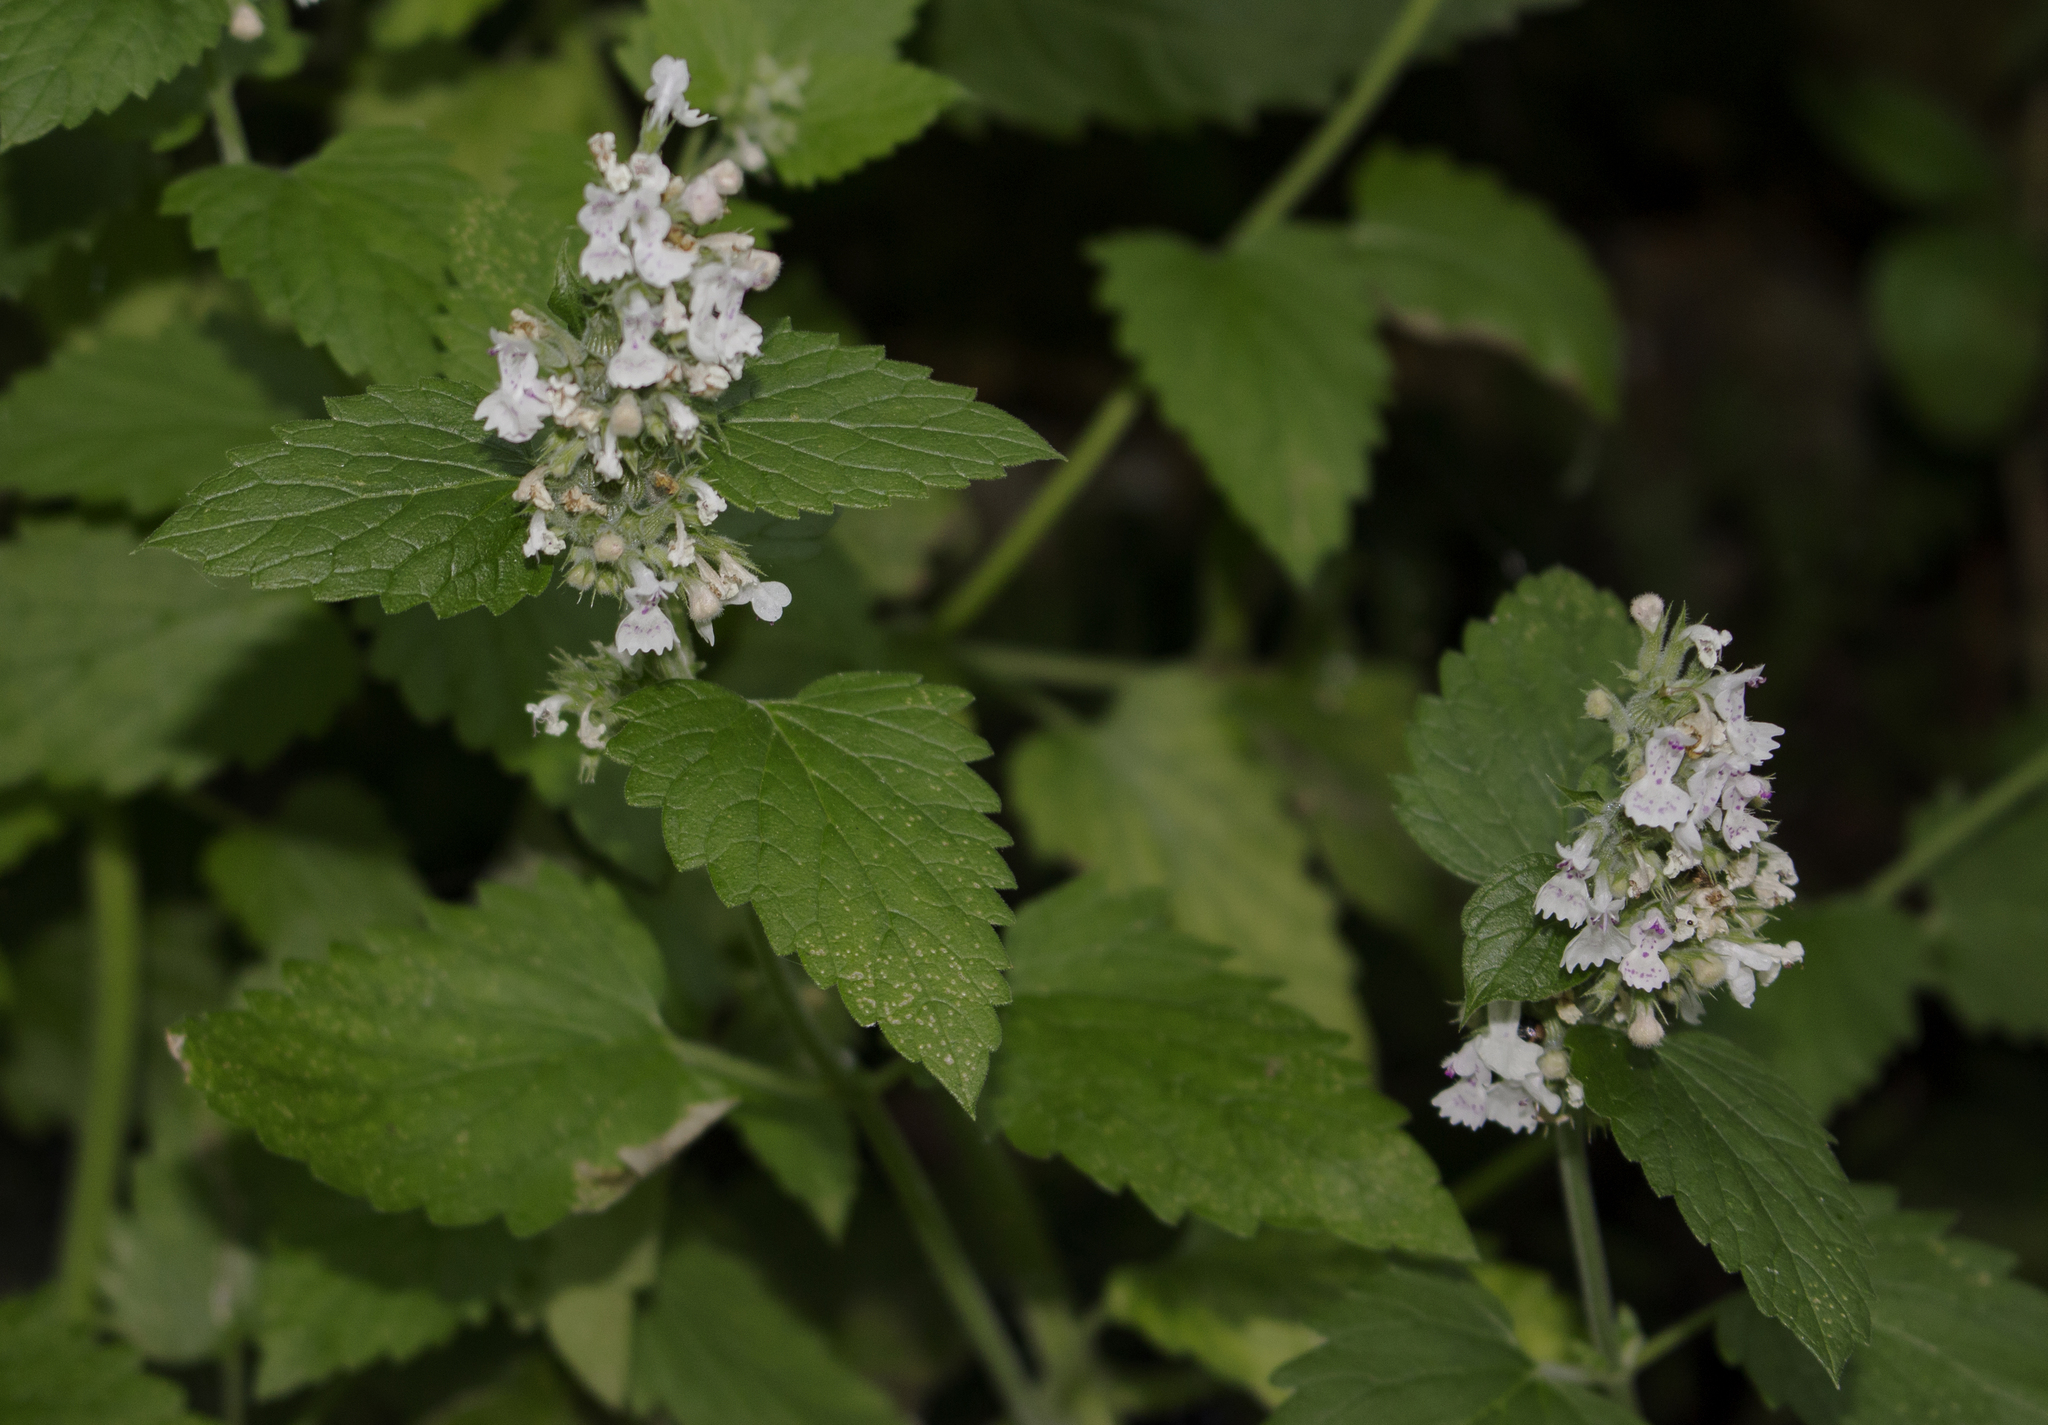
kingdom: Plantae
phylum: Tracheophyta
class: Magnoliopsida
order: Lamiales
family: Lamiaceae
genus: Nepeta
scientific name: Nepeta cataria
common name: Catnip
